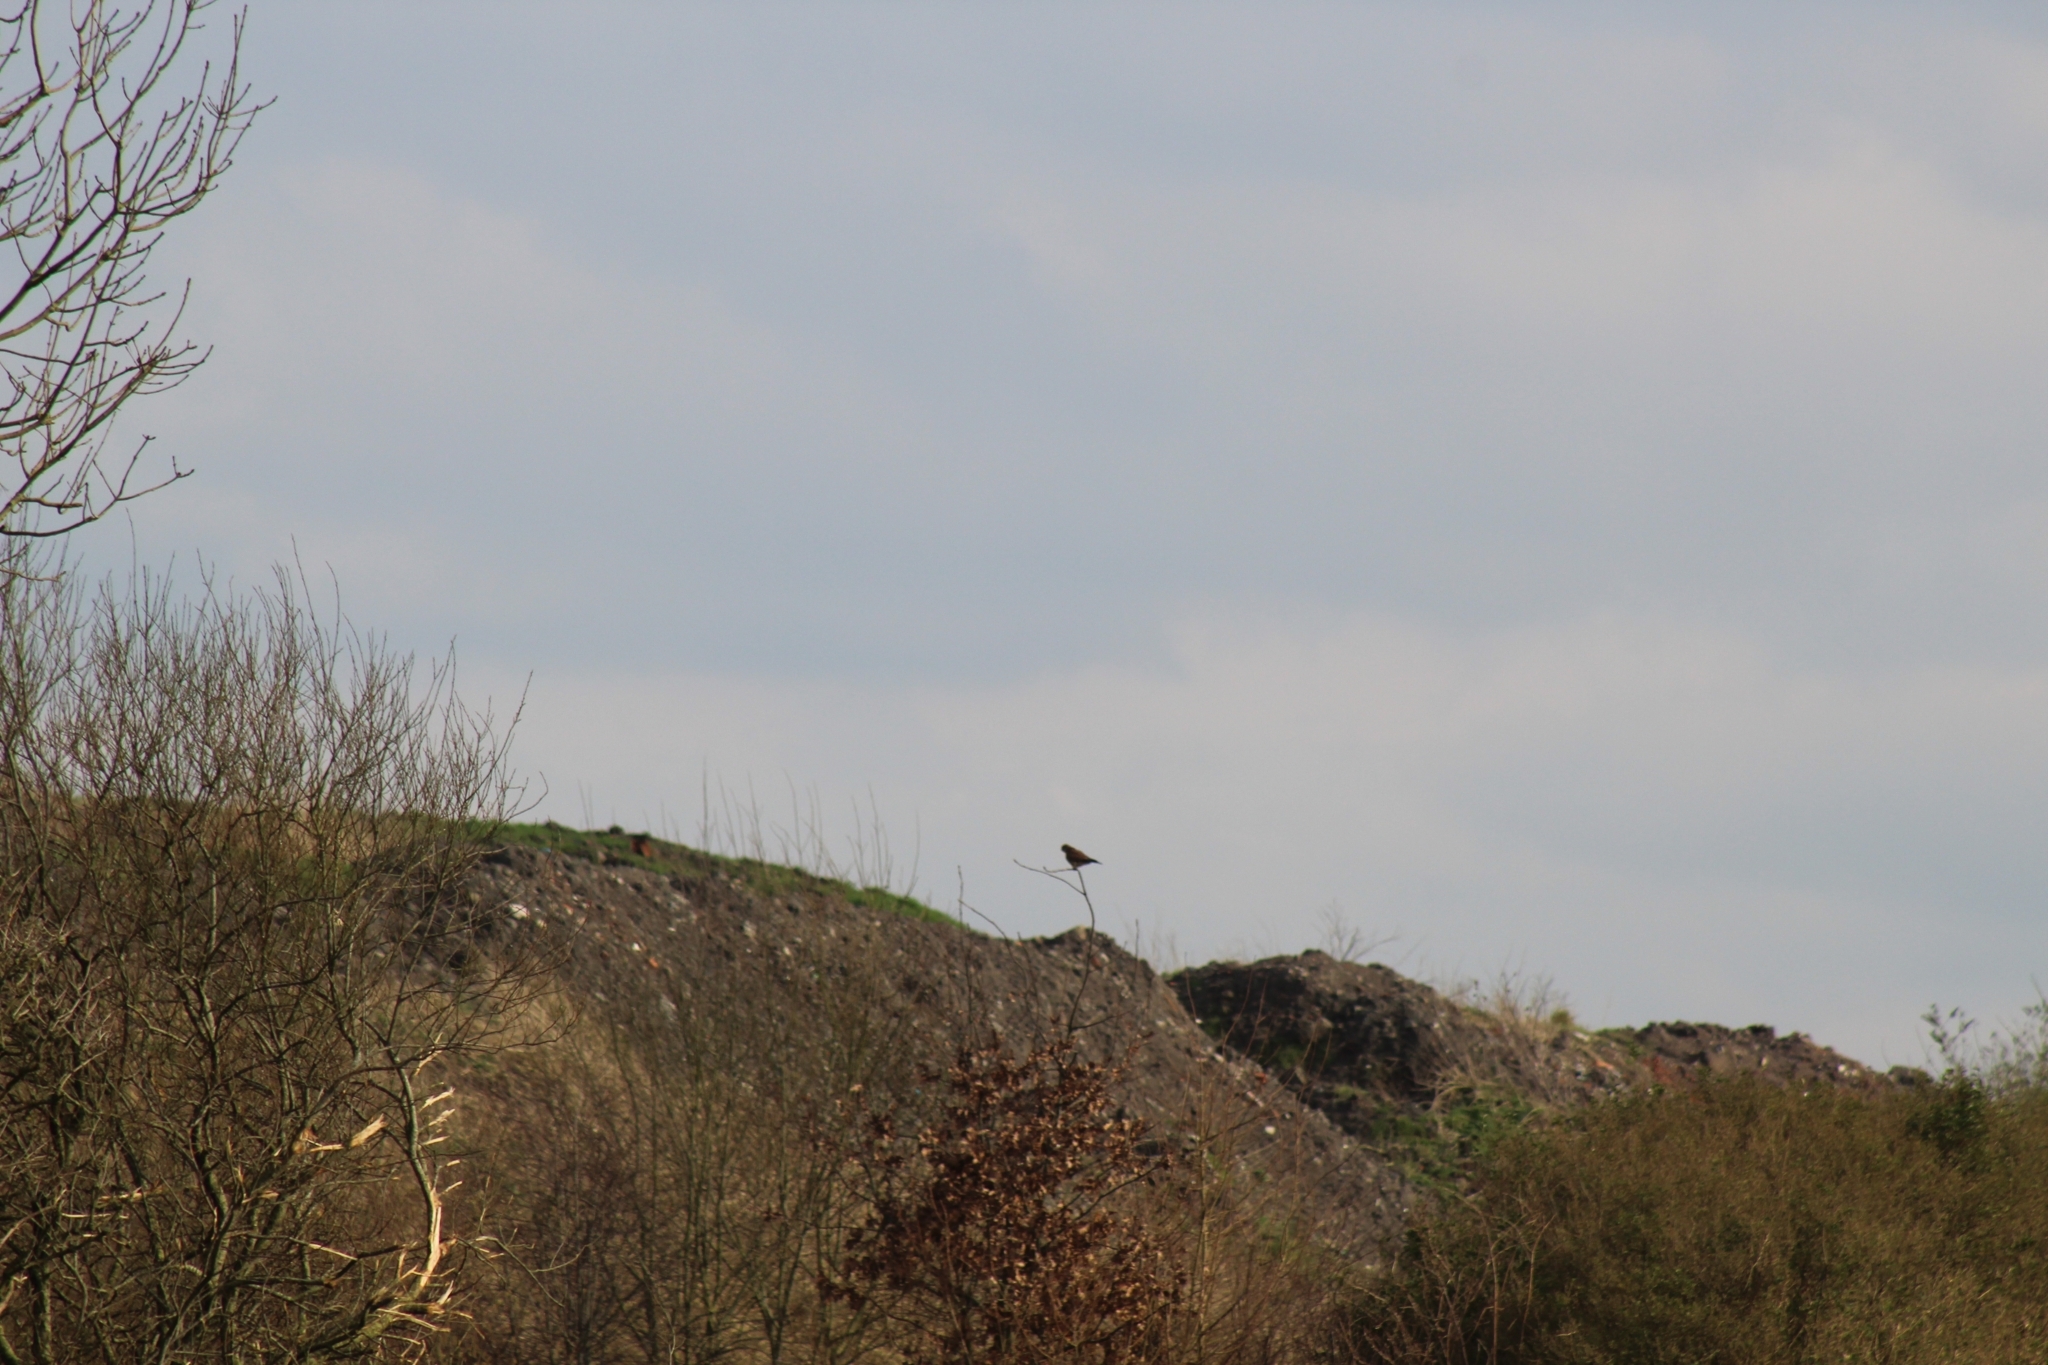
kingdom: Animalia
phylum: Chordata
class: Aves
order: Falconiformes
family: Falconidae
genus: Falco
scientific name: Falco tinnunculus
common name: Common kestrel
